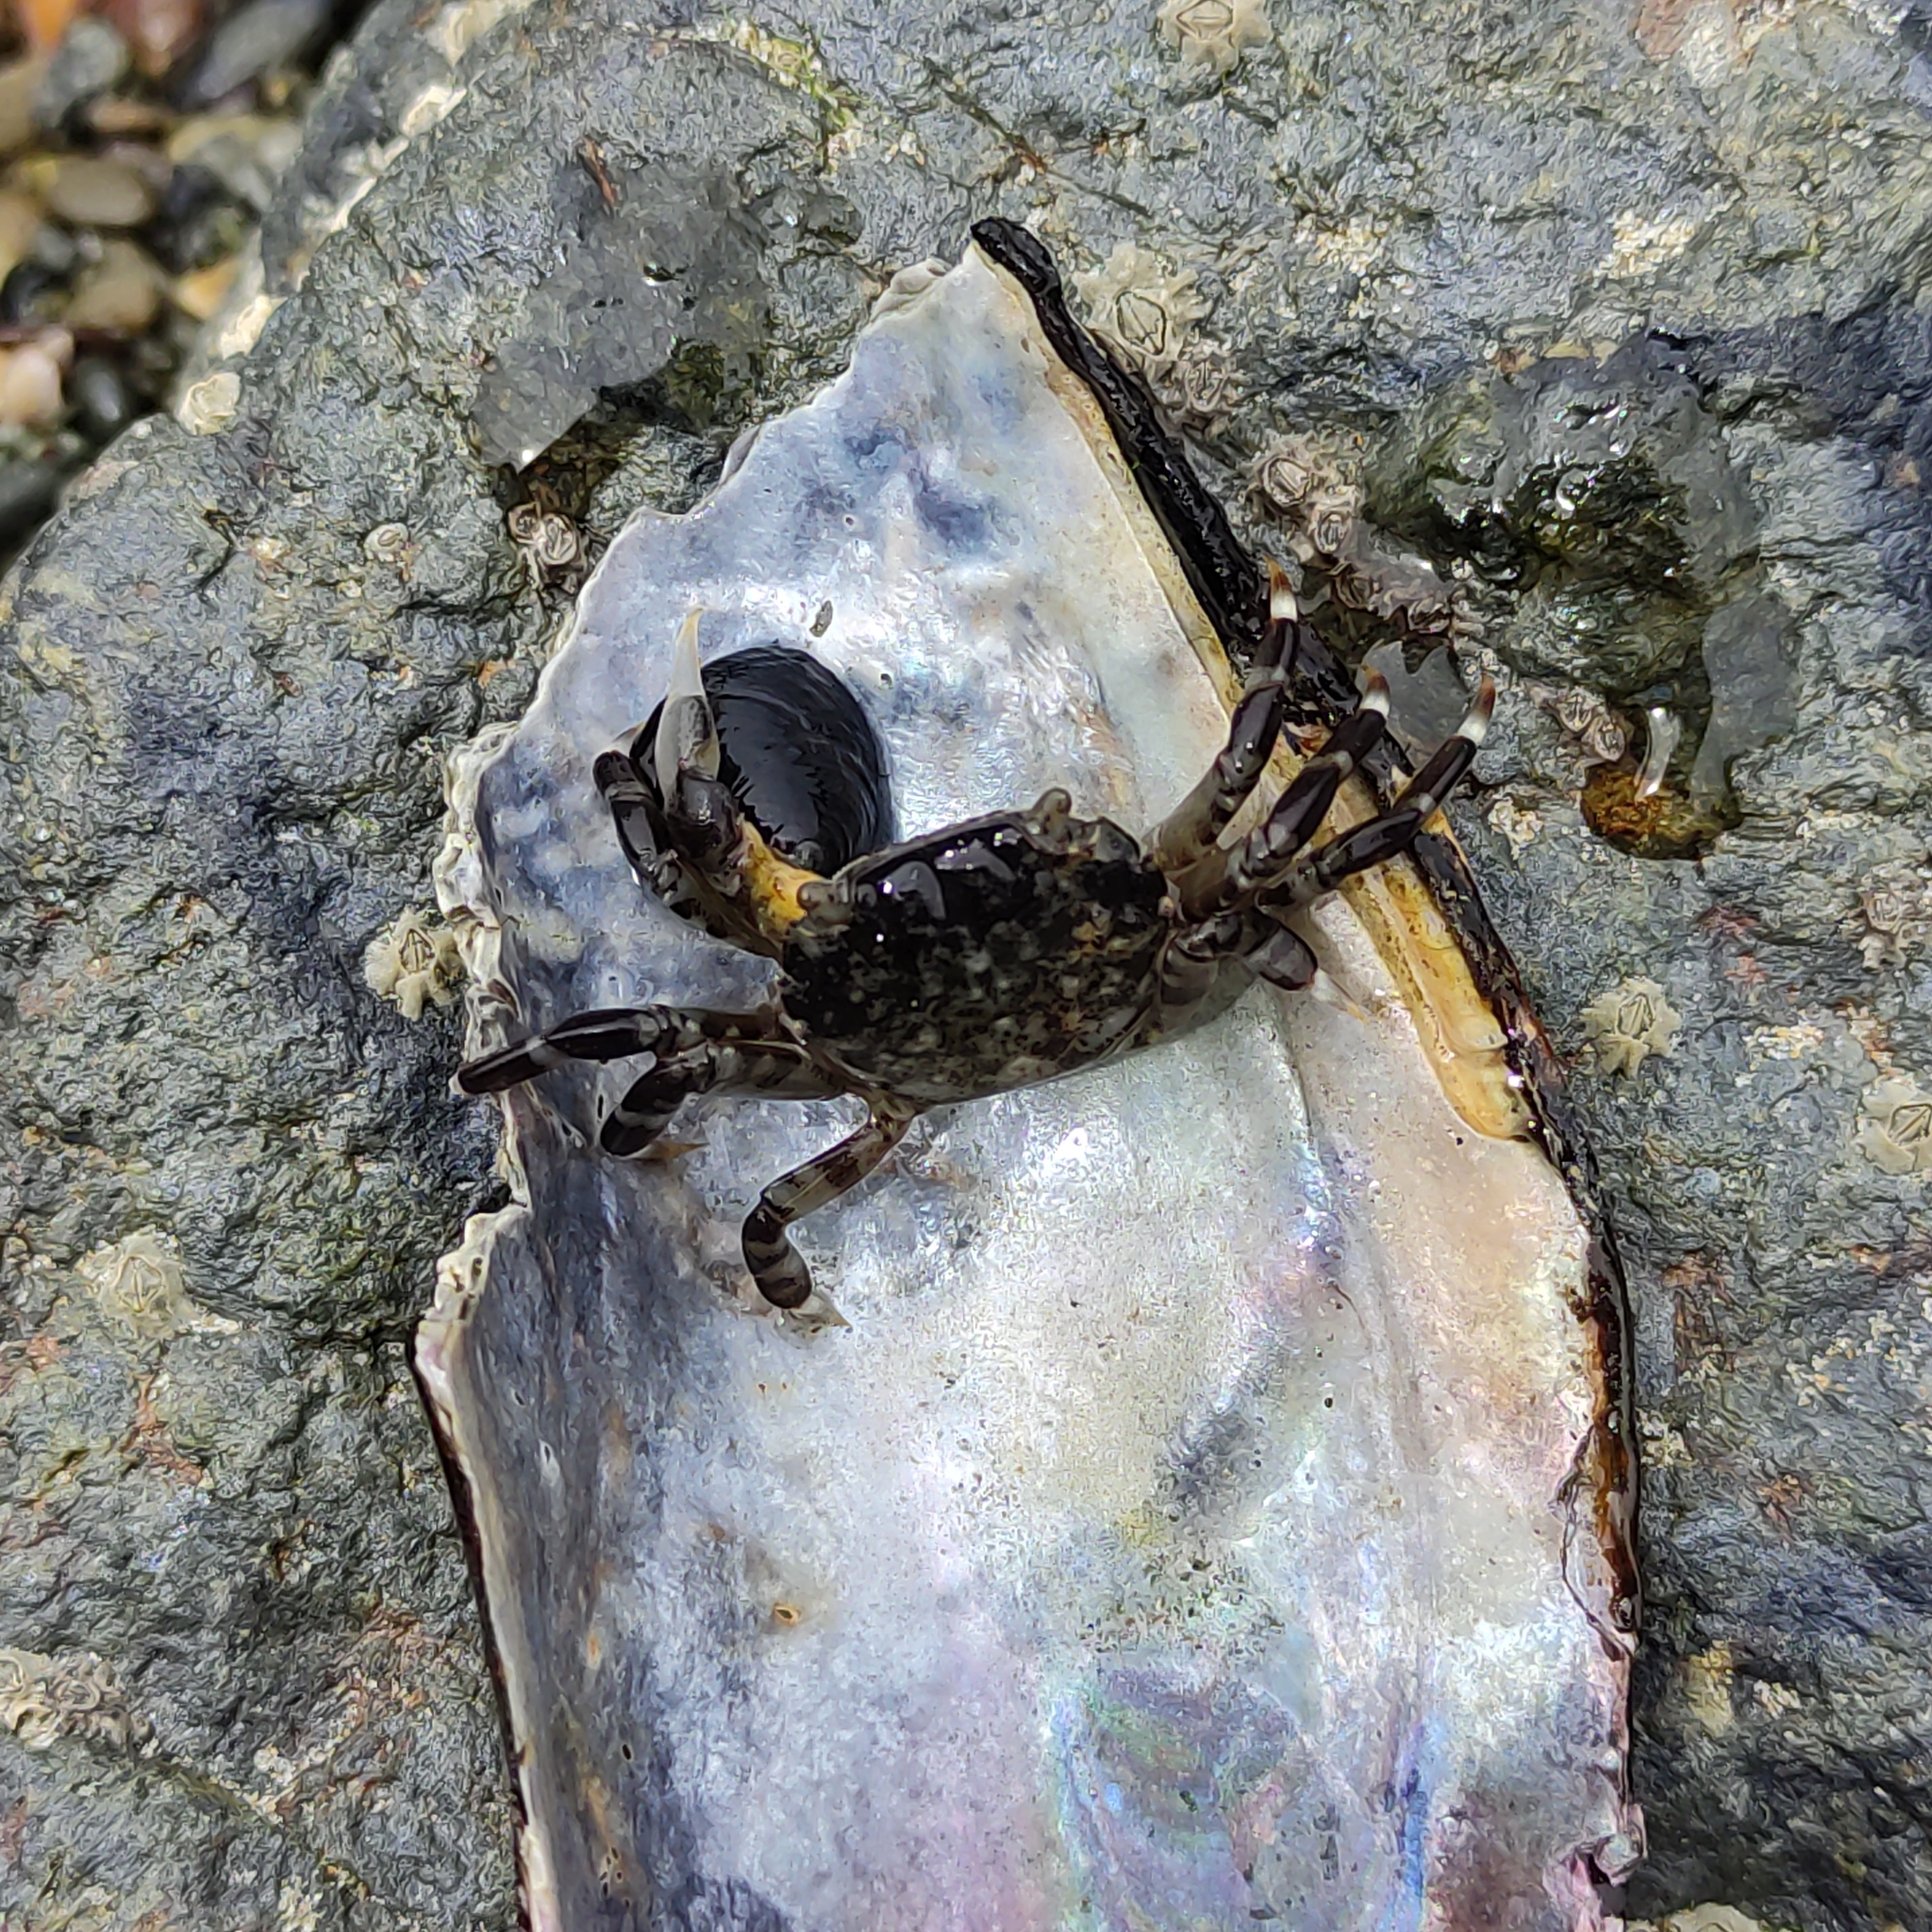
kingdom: Animalia
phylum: Arthropoda
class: Malacostraca
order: Decapoda
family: Varunidae
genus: Hemigrapsus
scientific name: Hemigrapsus sexdentatus
